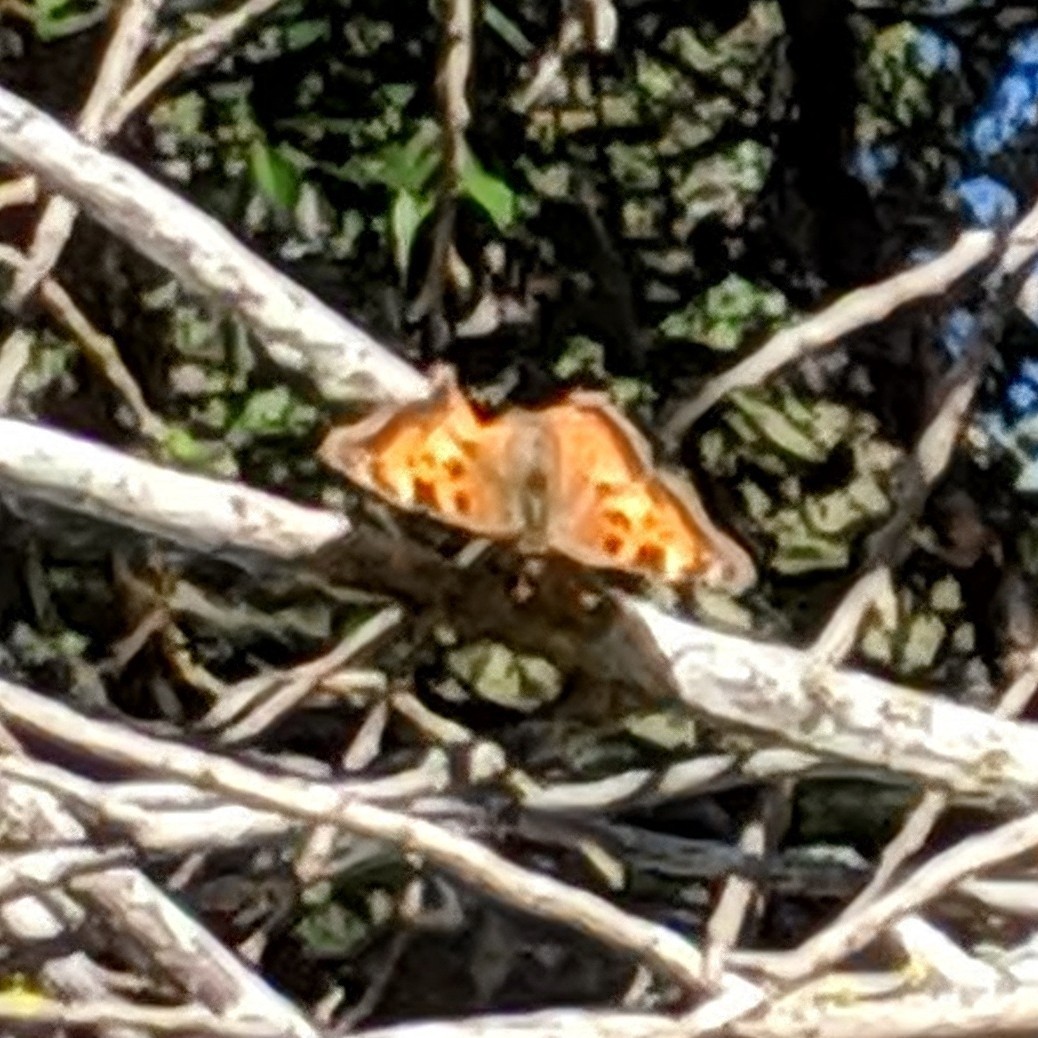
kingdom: Animalia
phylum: Arthropoda
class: Insecta
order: Lepidoptera
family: Nymphalidae
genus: Nymphalis
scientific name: Nymphalis californica
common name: California tortoiseshell
